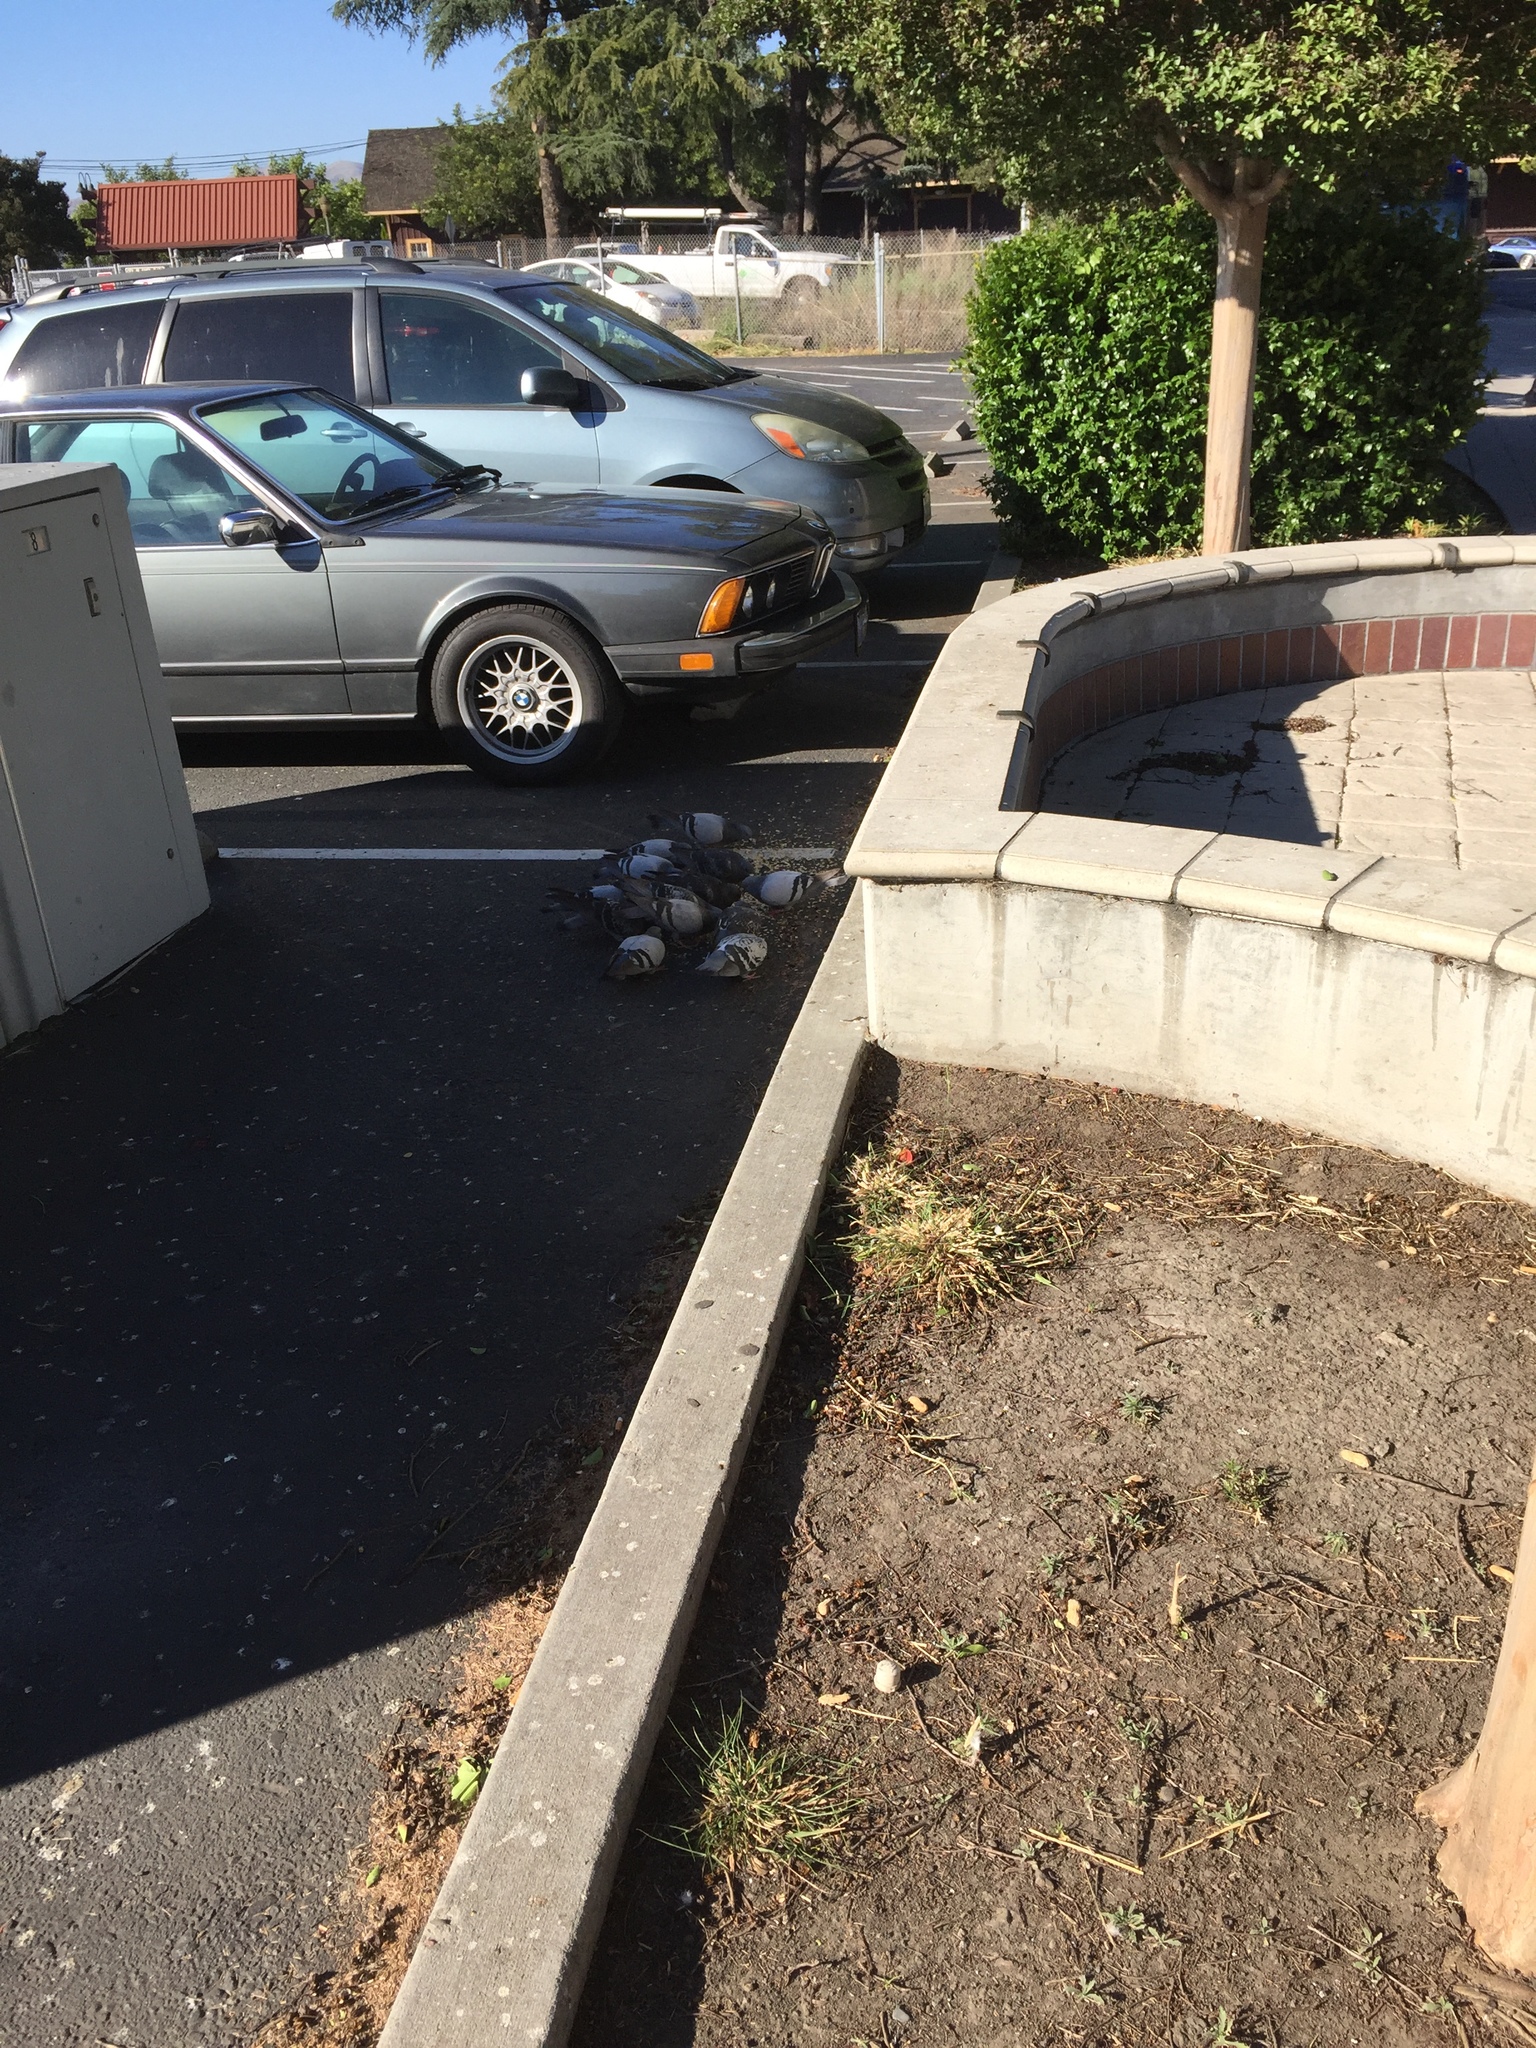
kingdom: Animalia
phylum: Chordata
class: Aves
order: Columbiformes
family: Columbidae
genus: Columba
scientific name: Columba livia
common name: Rock pigeon
